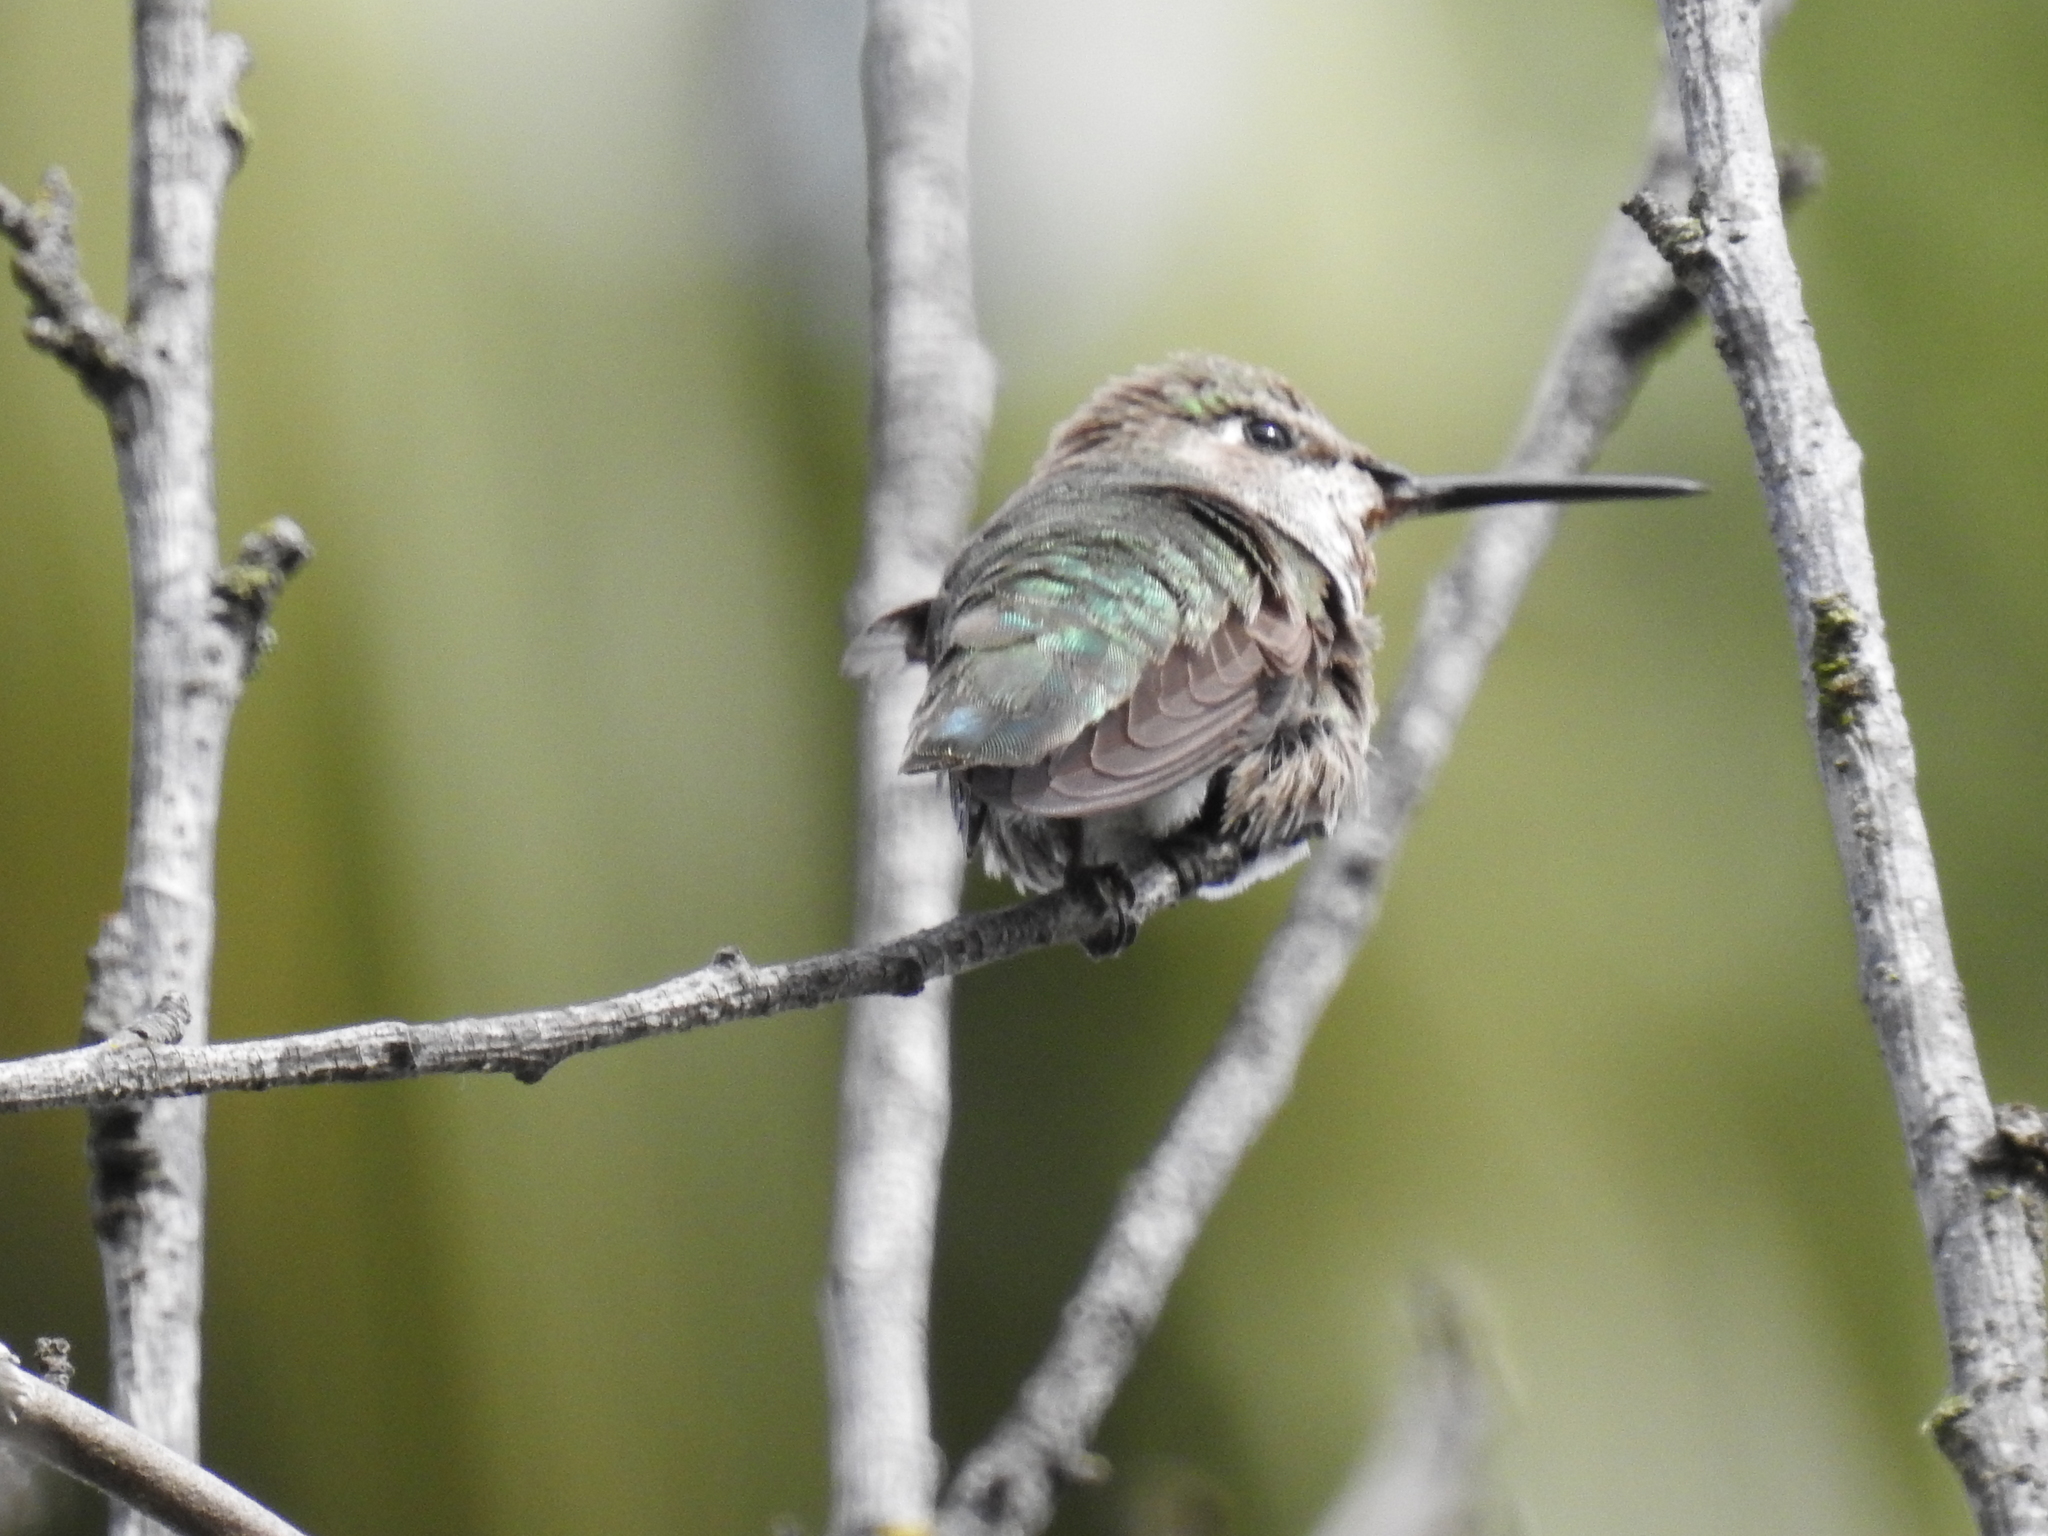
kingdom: Animalia
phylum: Chordata
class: Aves
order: Apodiformes
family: Trochilidae
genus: Calypte
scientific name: Calypte anna
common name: Anna's hummingbird
